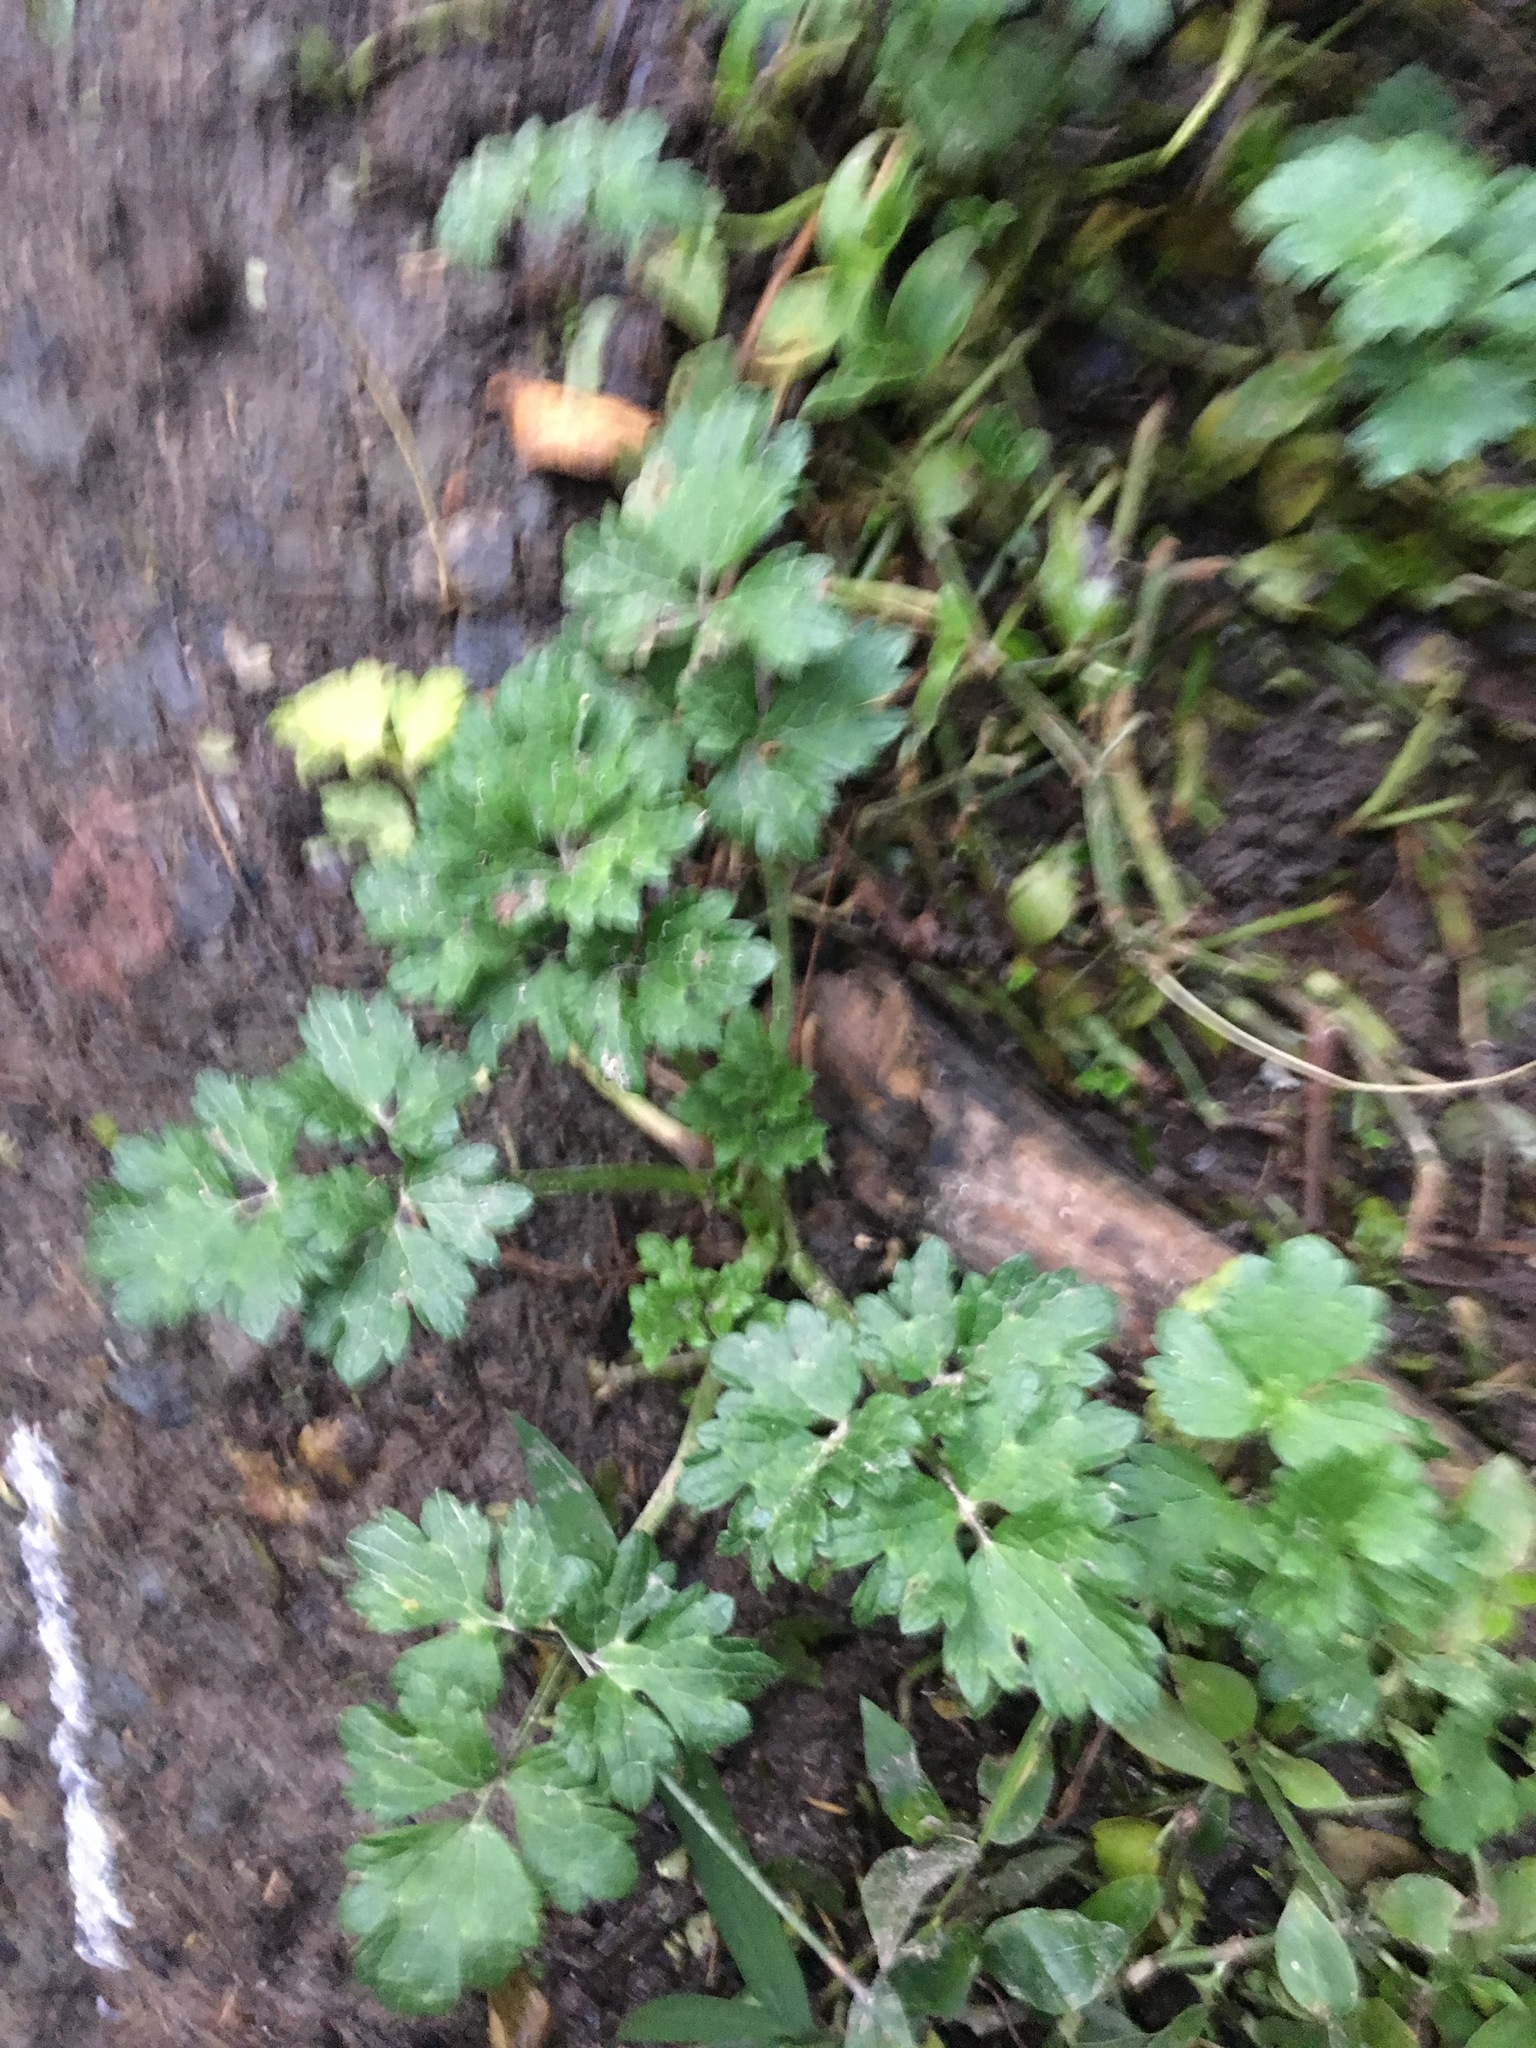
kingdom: Plantae
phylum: Tracheophyta
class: Magnoliopsida
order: Ranunculales
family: Ranunculaceae
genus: Ranunculus
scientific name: Ranunculus repens
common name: Creeping buttercup
